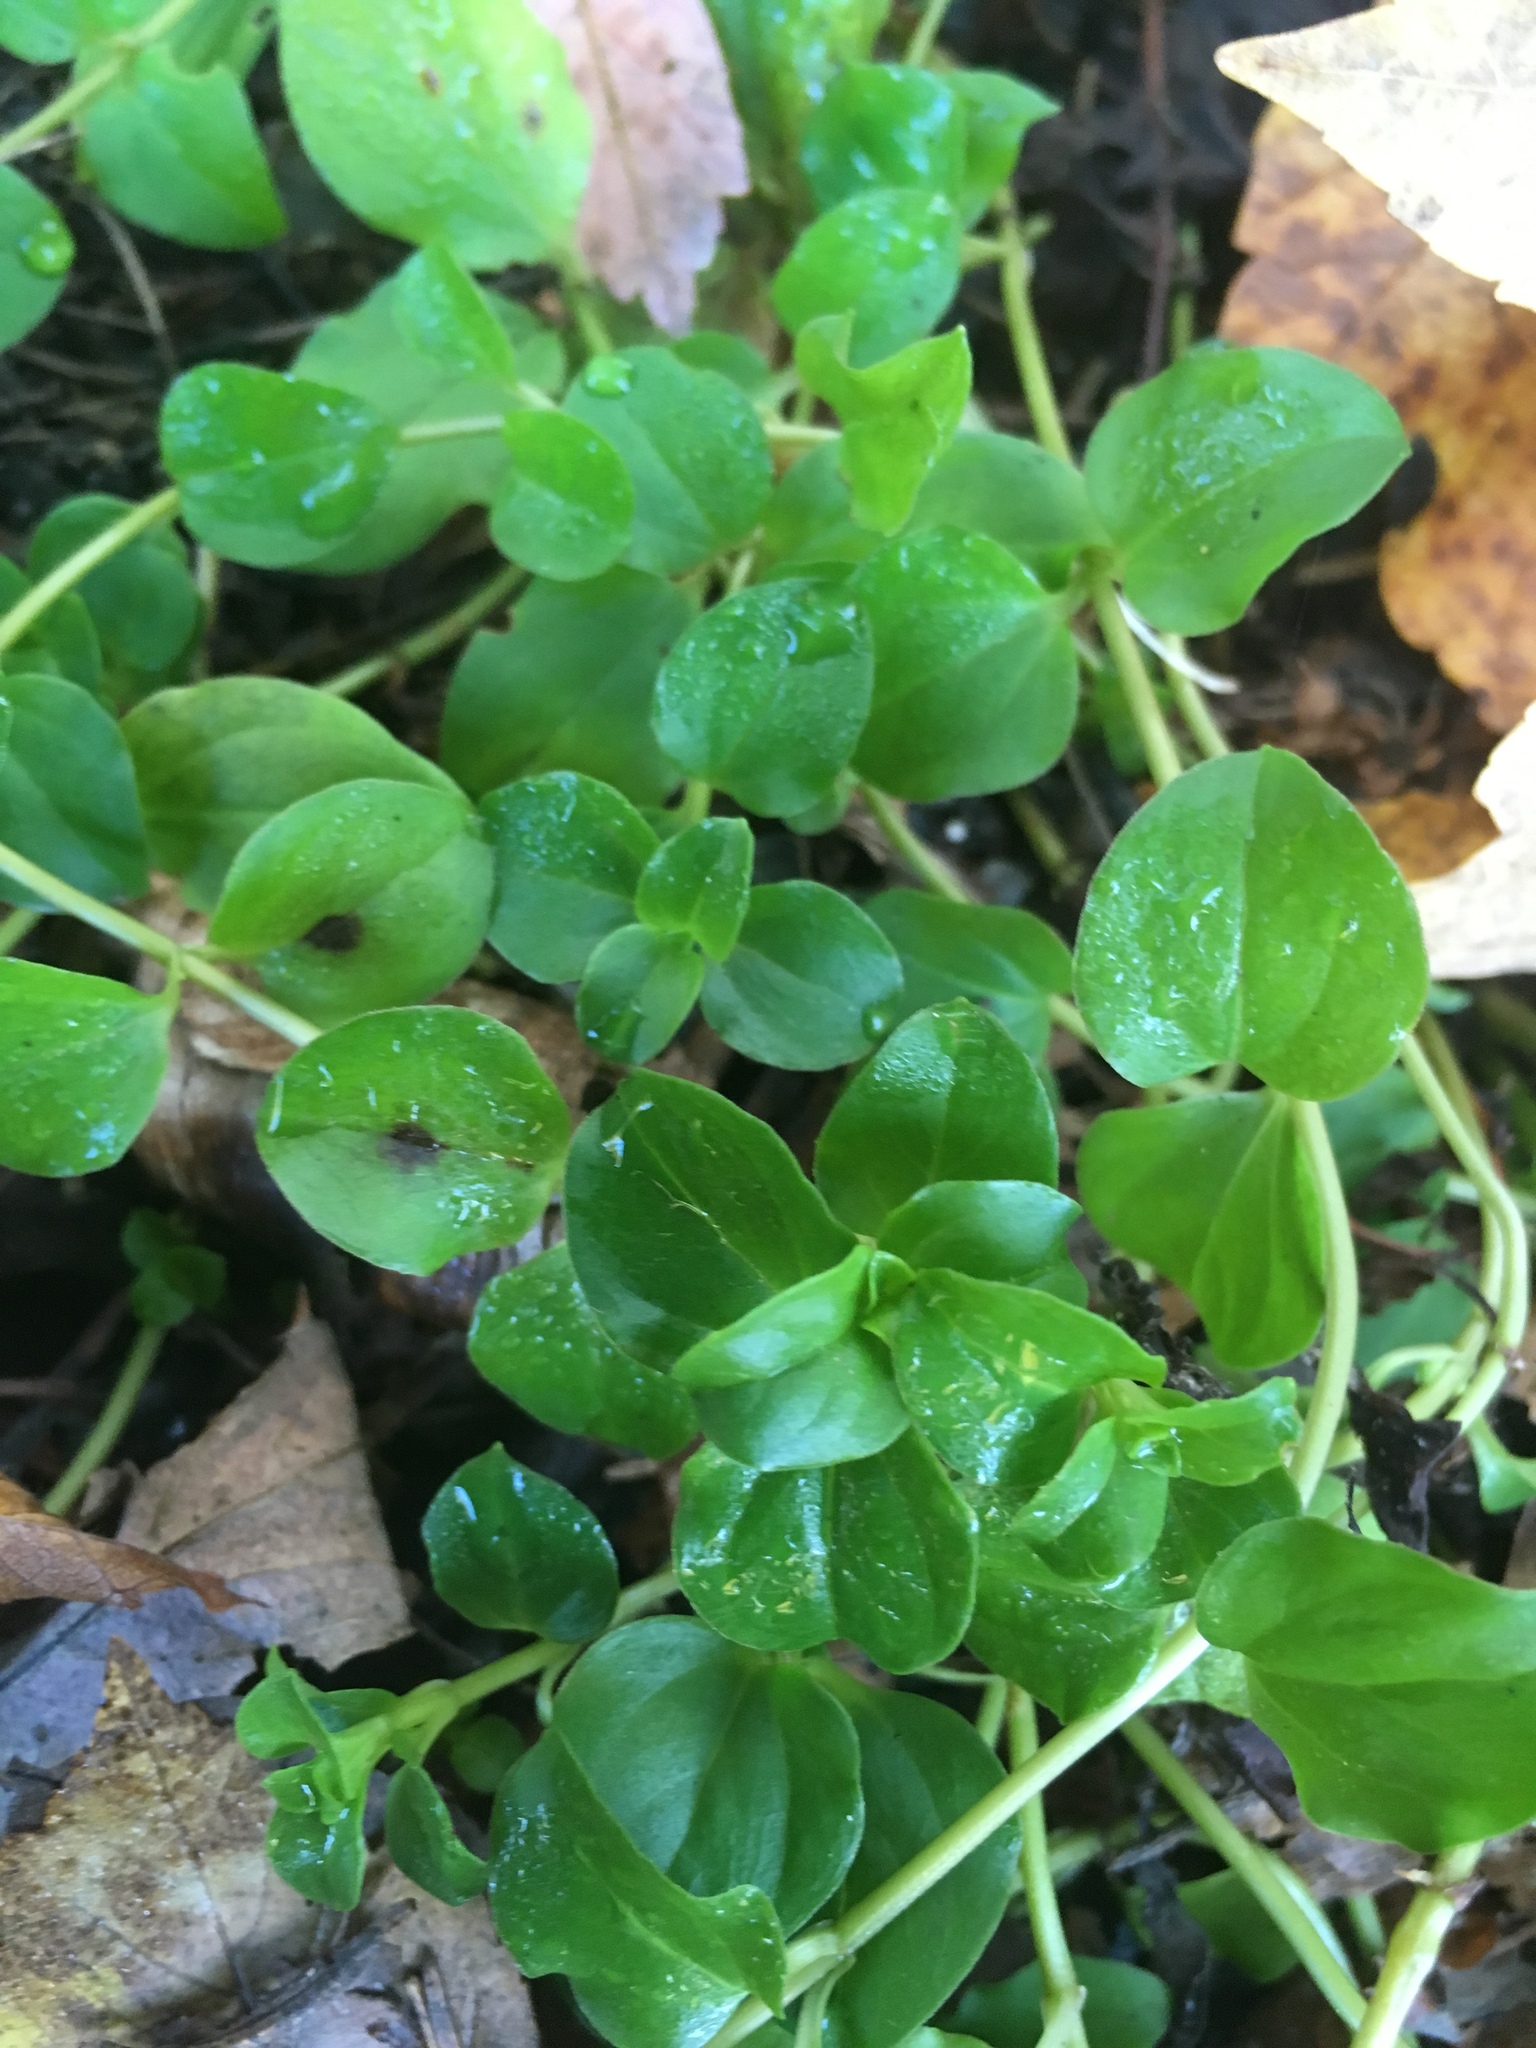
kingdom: Plantae
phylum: Tracheophyta
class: Magnoliopsida
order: Ericales
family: Primulaceae
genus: Lysimachia
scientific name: Lysimachia nummularia
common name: Moneywort
